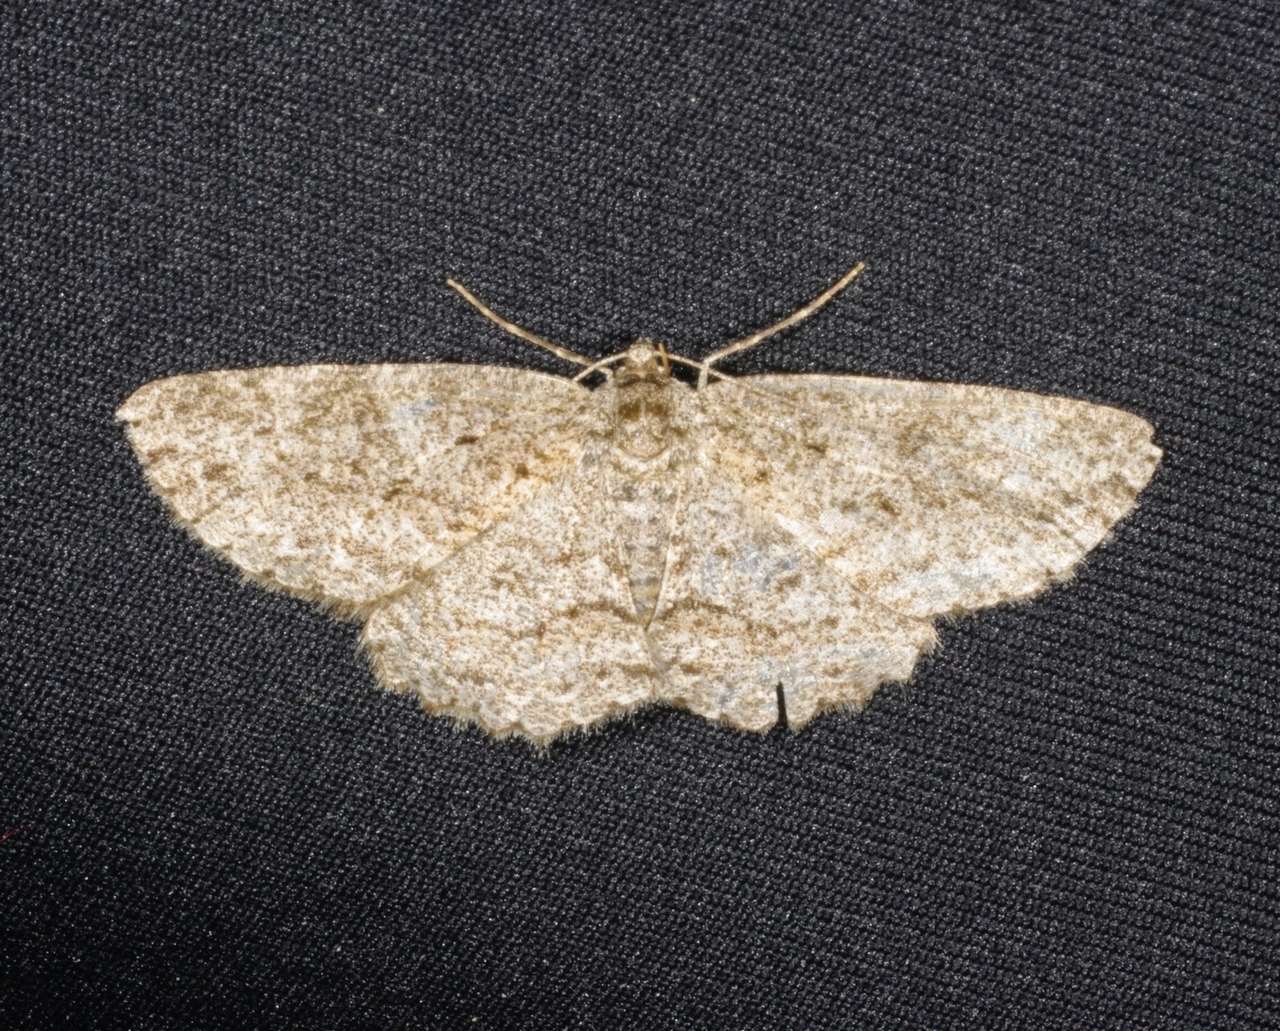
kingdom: Animalia
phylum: Arthropoda
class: Insecta
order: Lepidoptera
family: Geometridae
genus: Ectropis
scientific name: Ectropis fractaria
